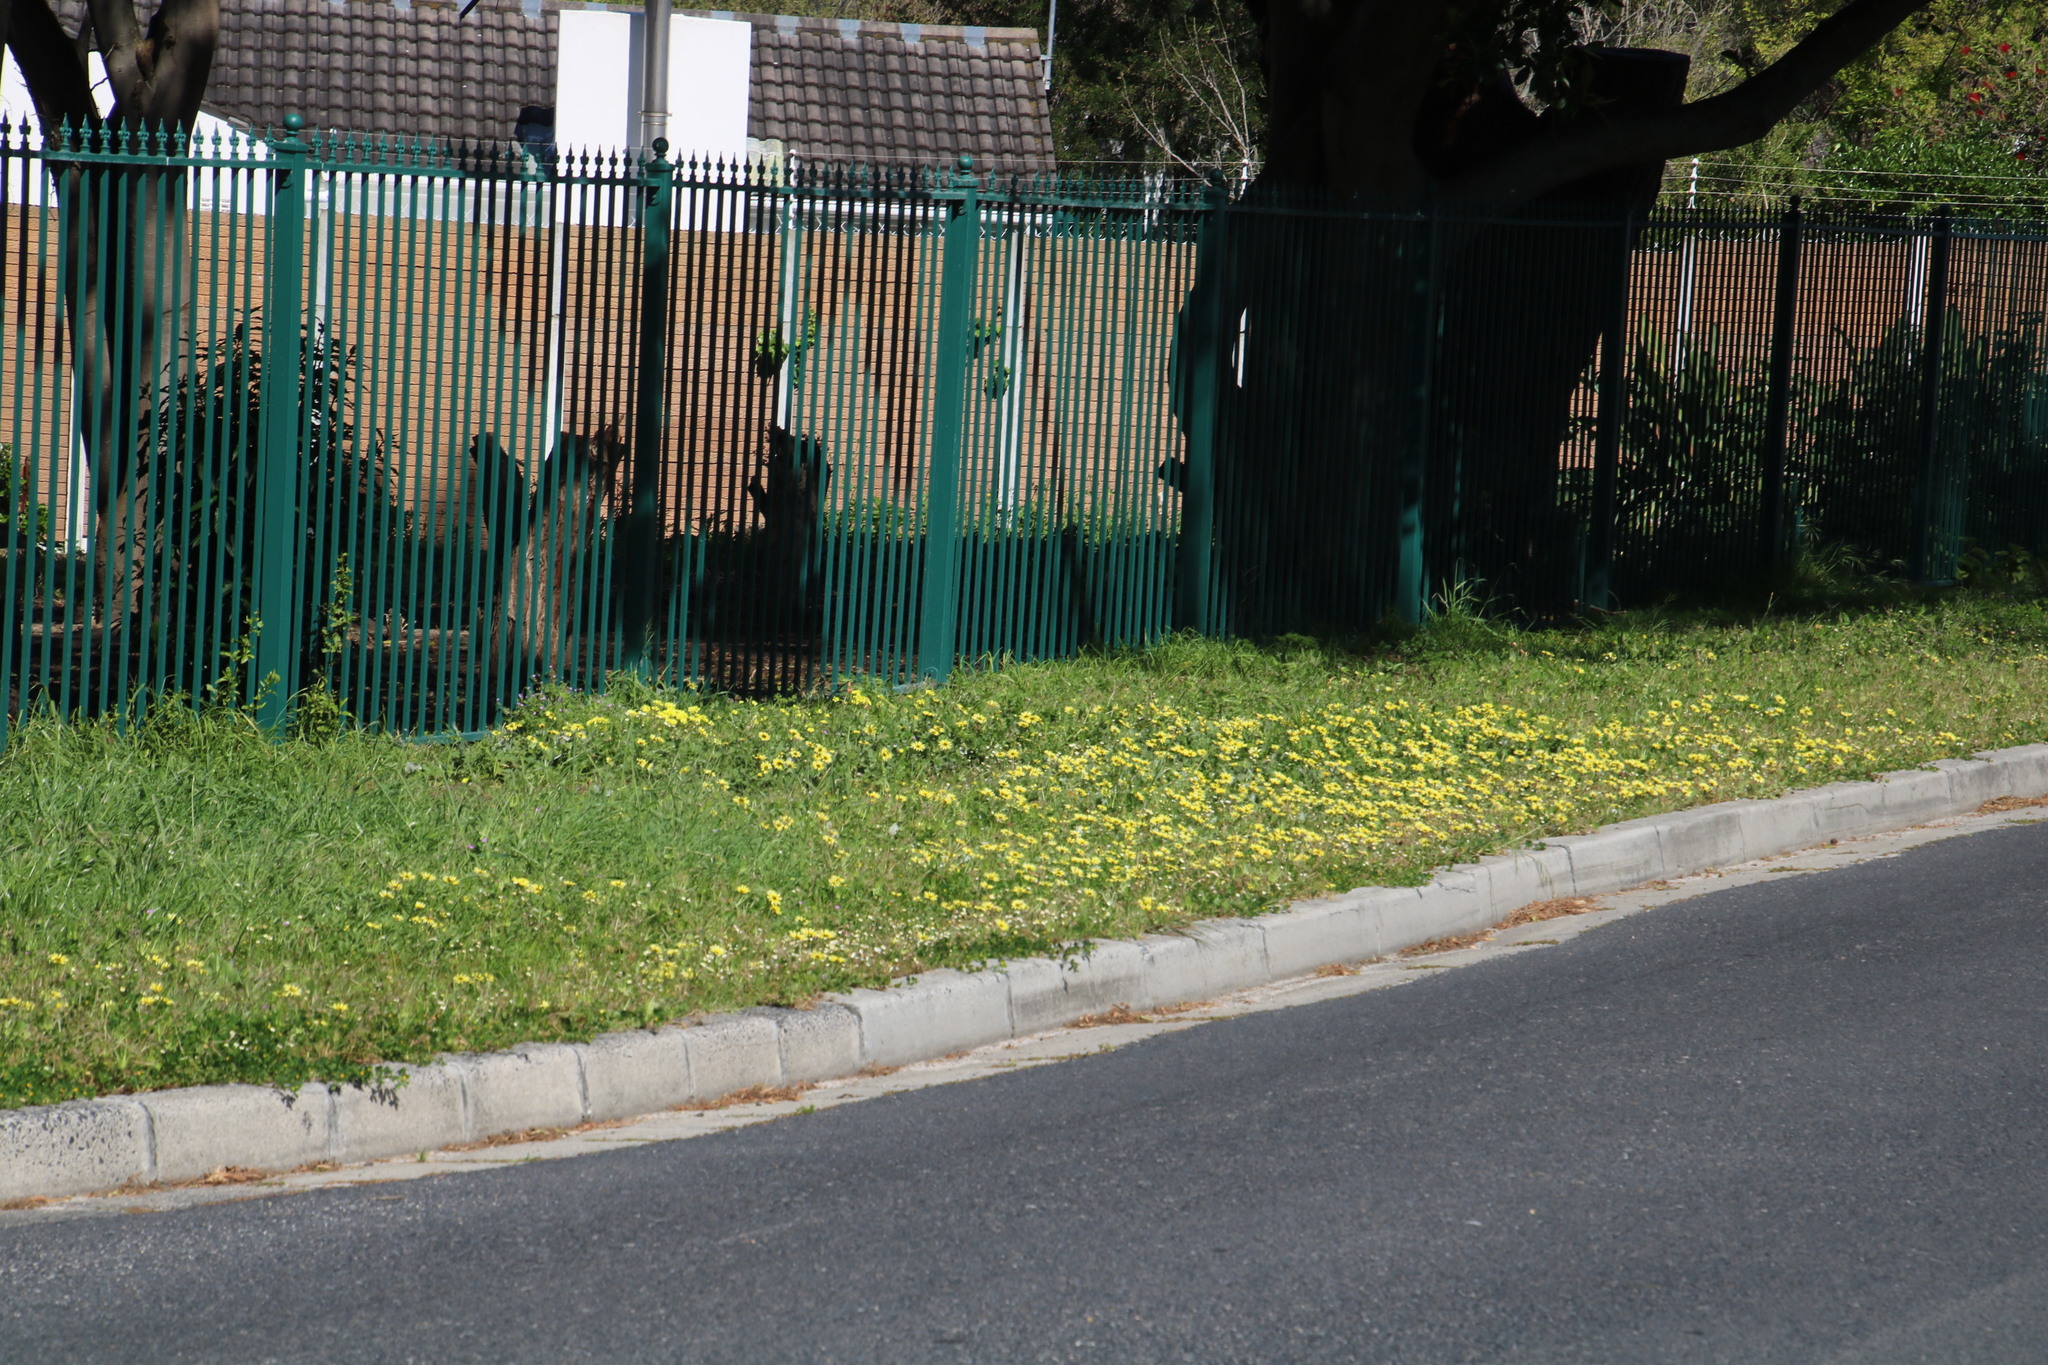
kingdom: Plantae
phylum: Tracheophyta
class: Magnoliopsida
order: Asterales
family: Asteraceae
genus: Arctotheca
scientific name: Arctotheca calendula
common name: Capeweed
